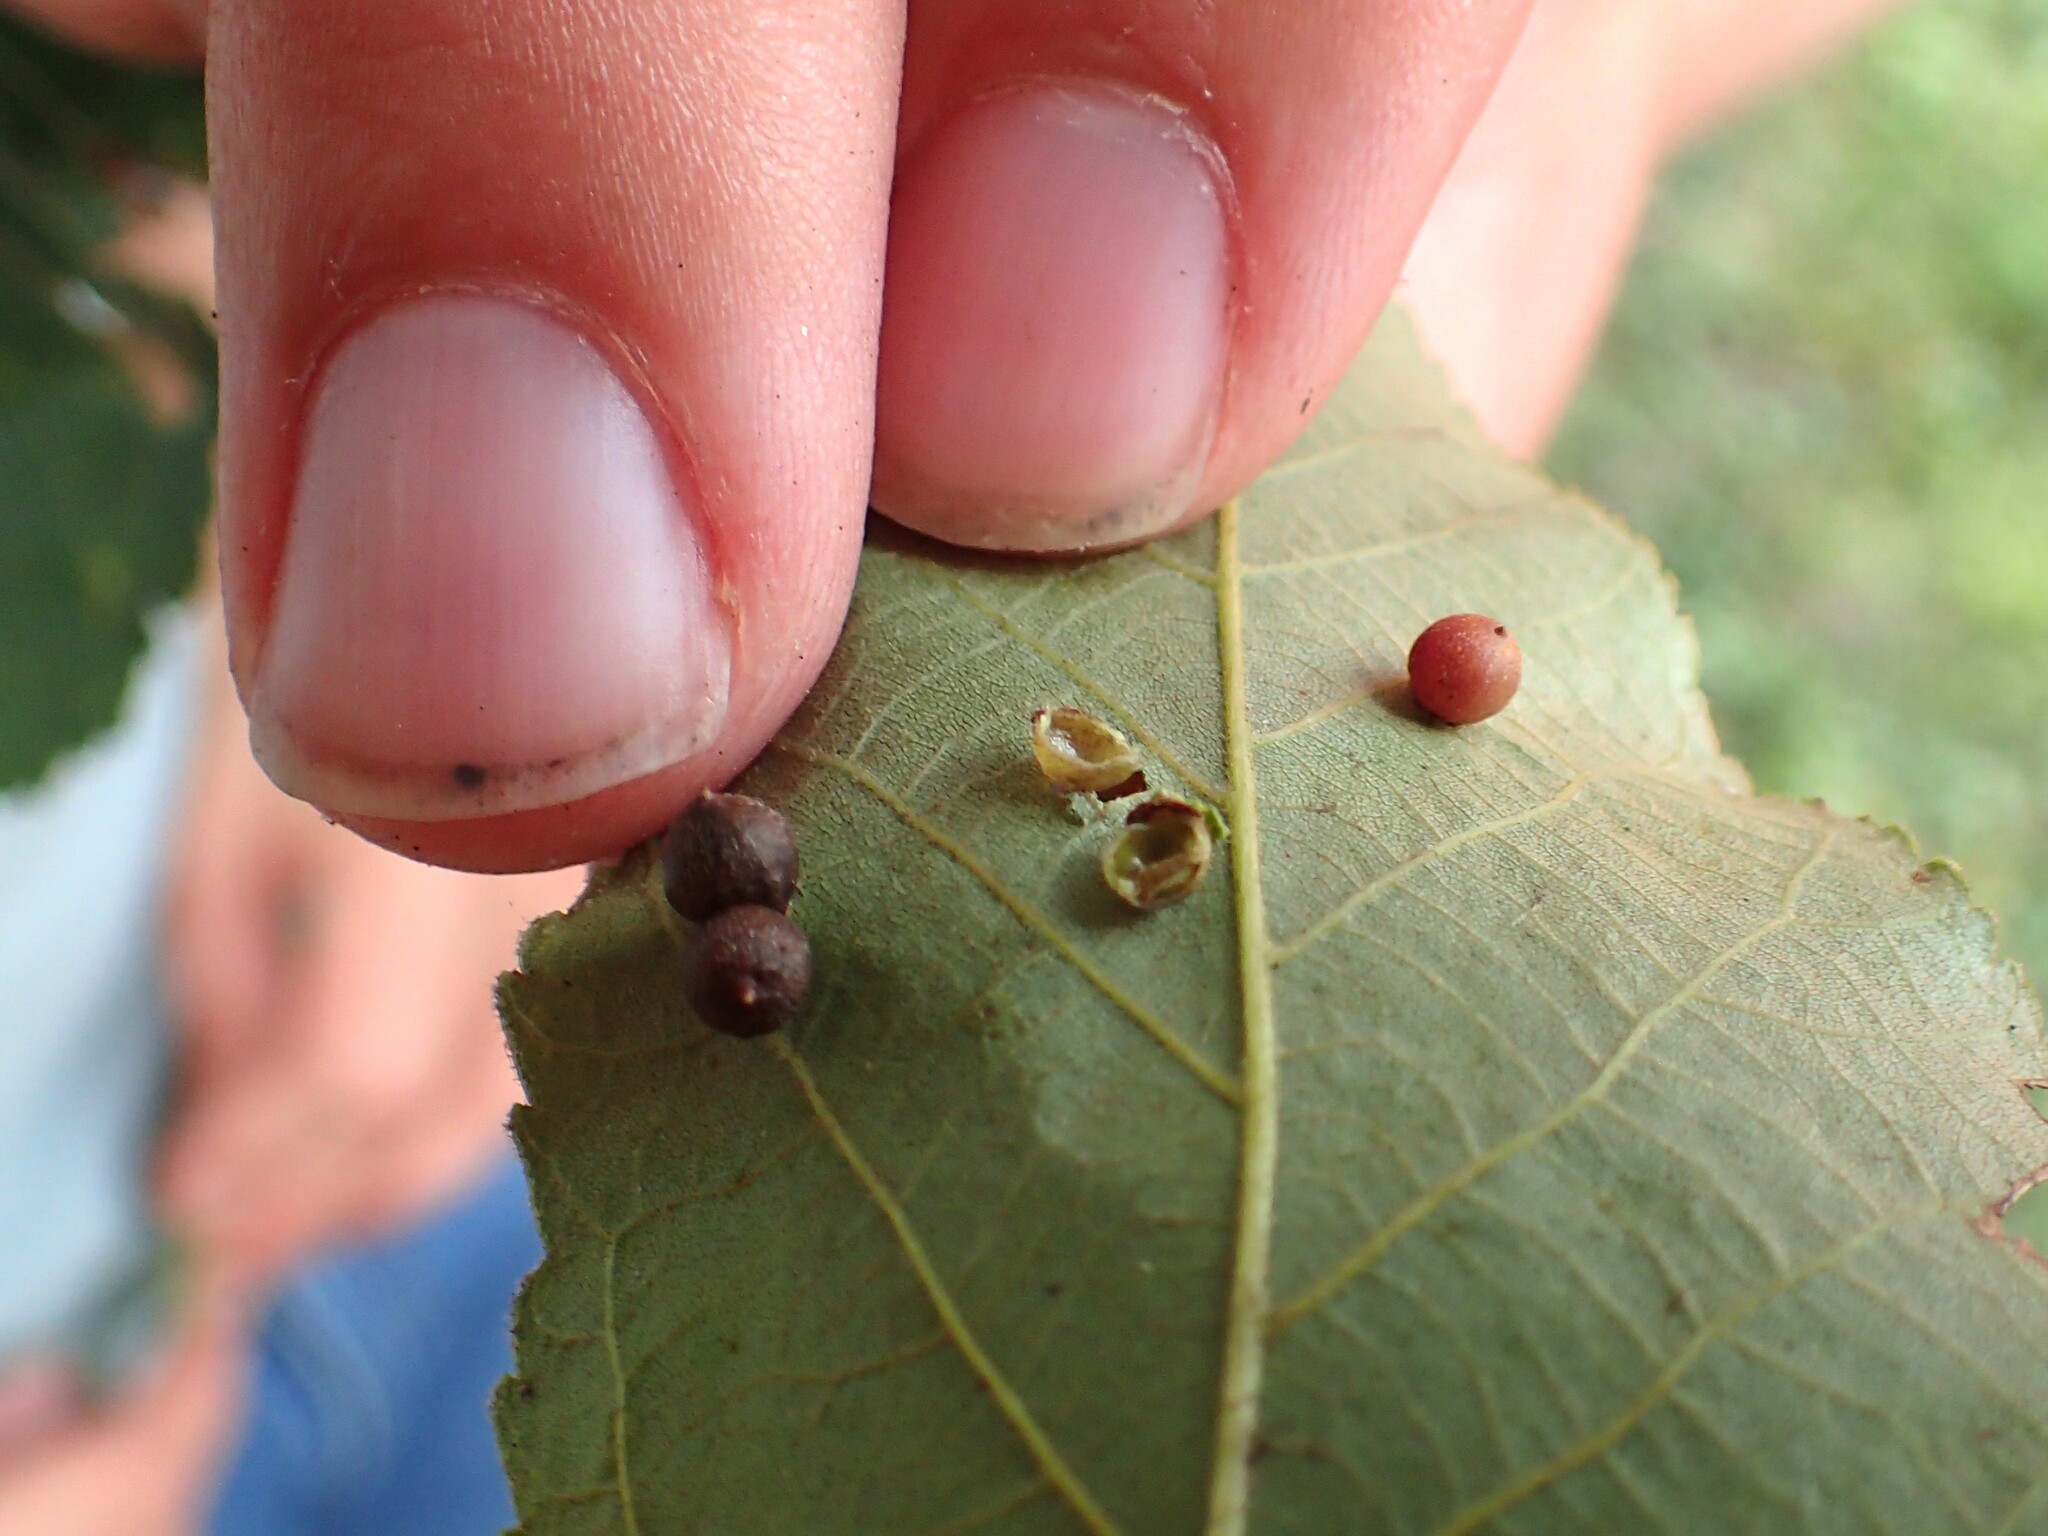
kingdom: Animalia
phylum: Arthropoda
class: Insecta
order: Diptera
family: Cecidomyiidae
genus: Caryomyia
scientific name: Caryomyia caryae
